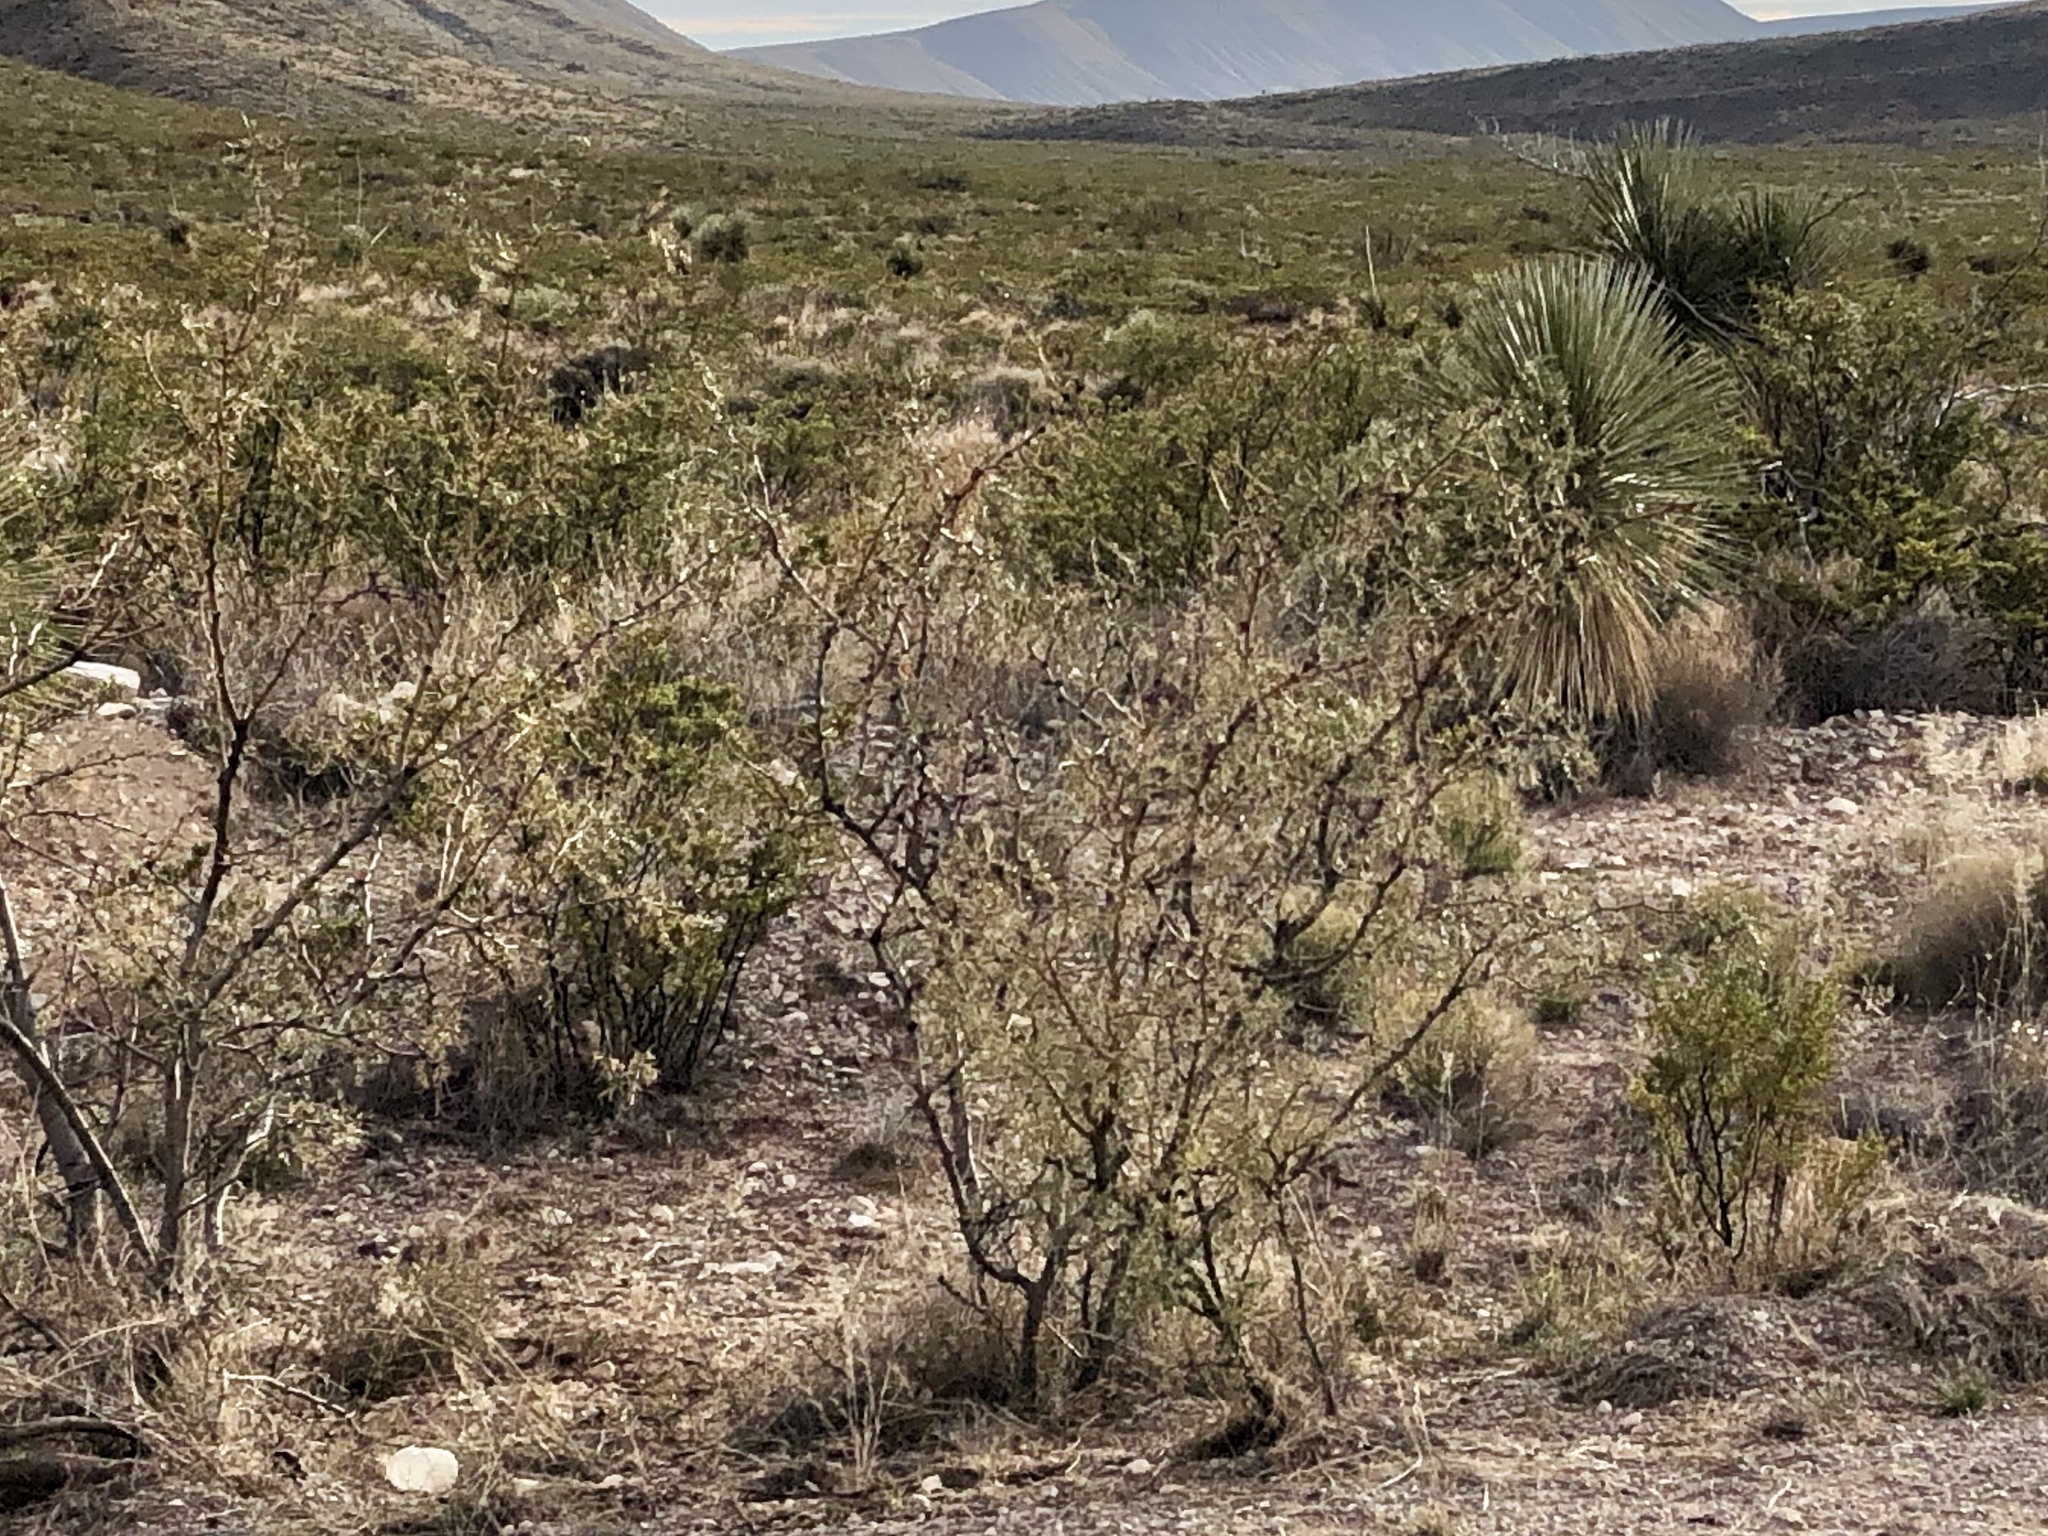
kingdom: Plantae
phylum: Tracheophyta
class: Magnoliopsida
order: Fabales
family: Fabaceae
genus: Prosopis
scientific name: Prosopis glandulosa
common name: Honey mesquite
